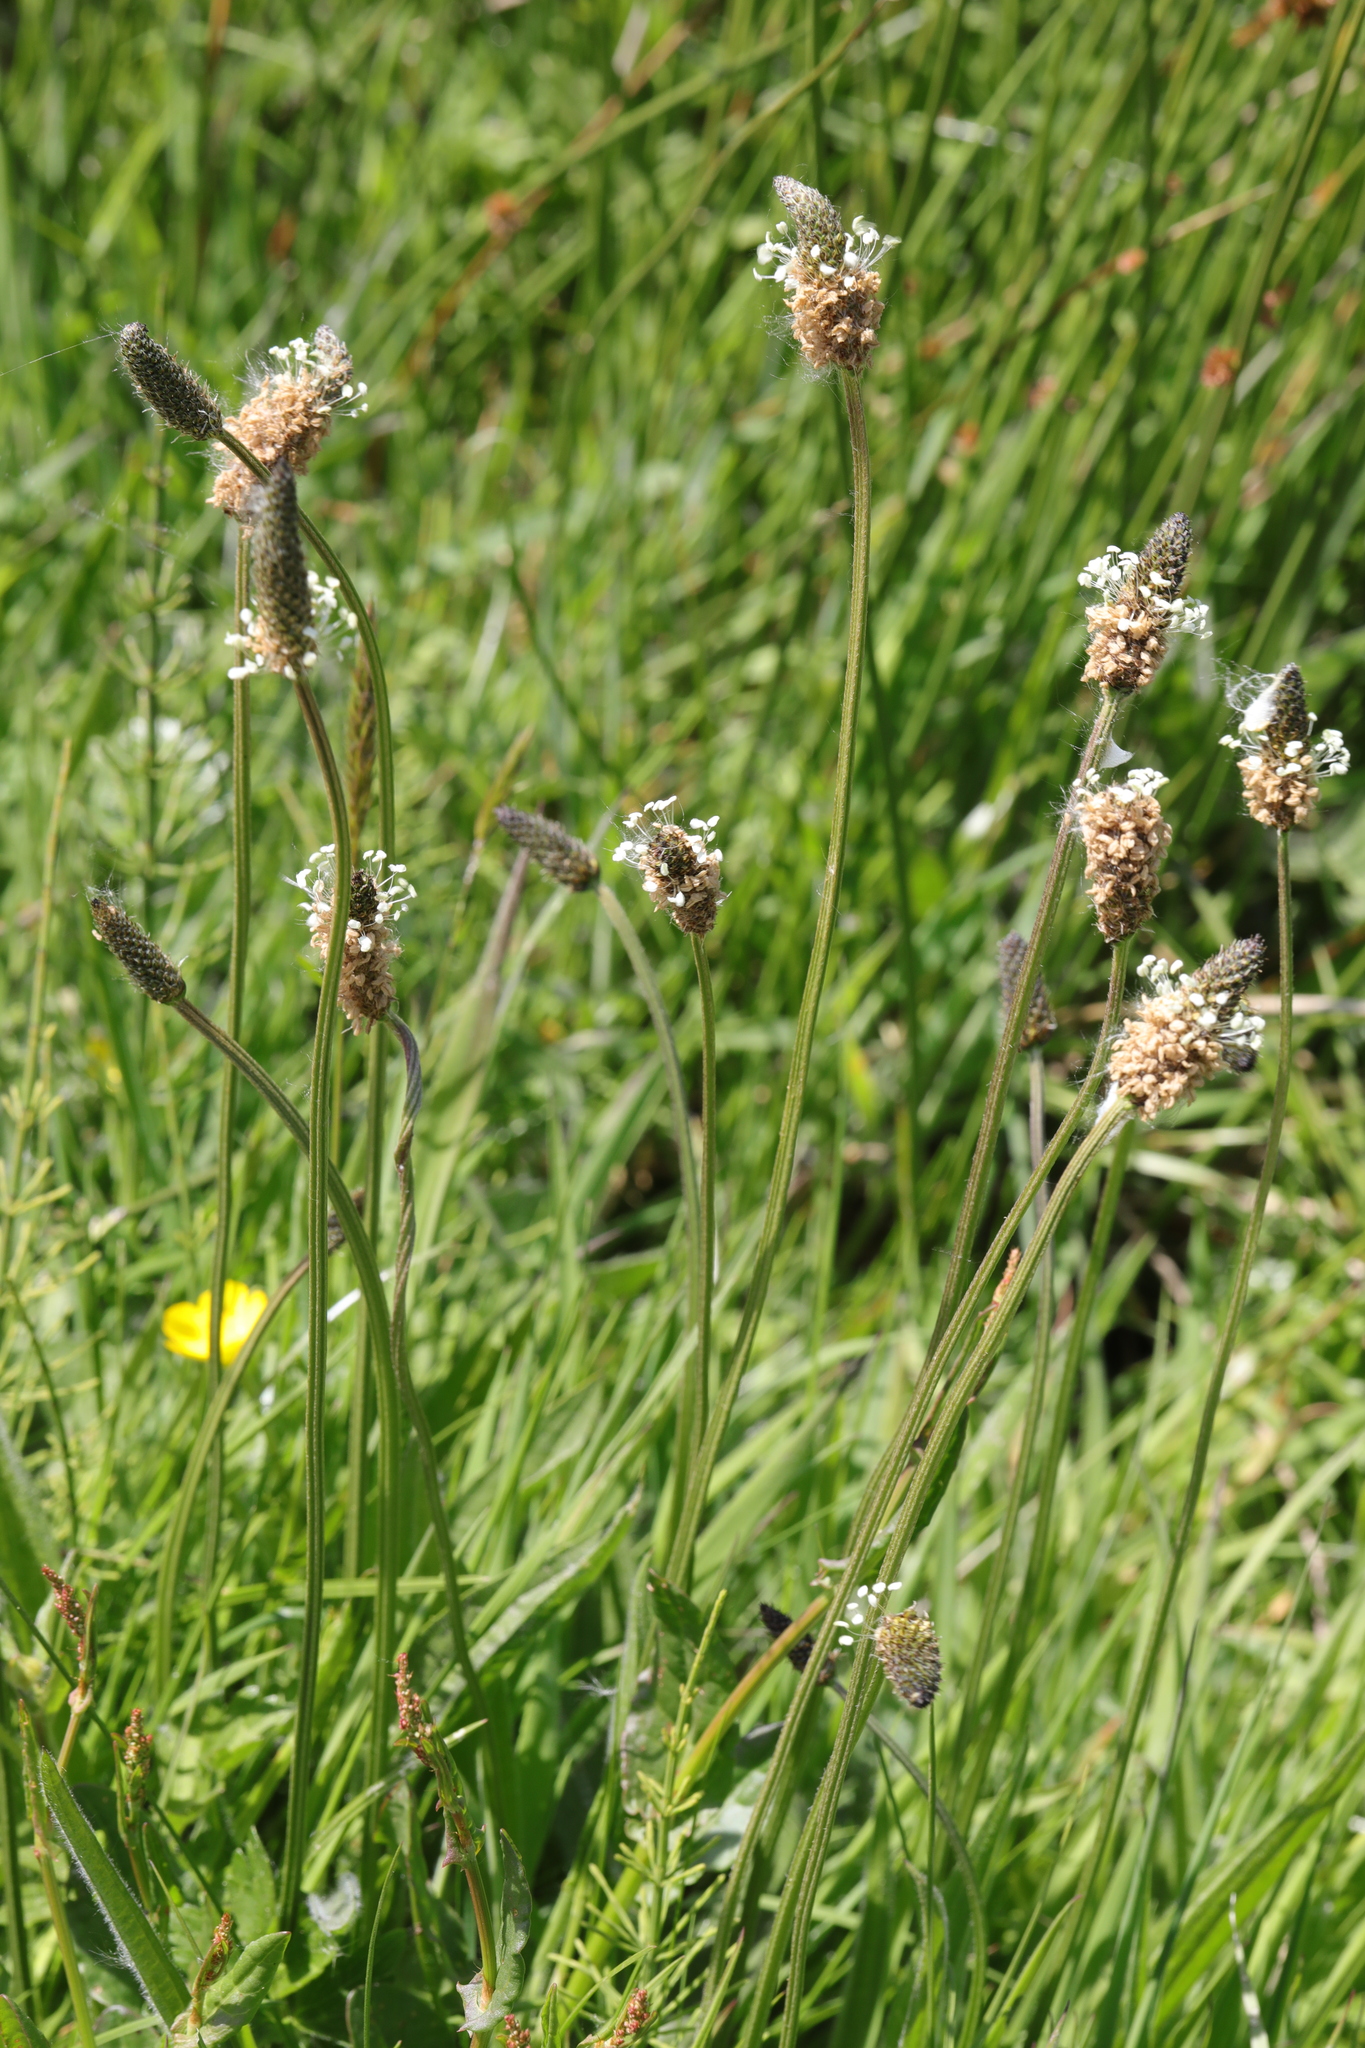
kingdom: Plantae
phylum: Tracheophyta
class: Magnoliopsida
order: Lamiales
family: Plantaginaceae
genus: Plantago
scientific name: Plantago lanceolata
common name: Ribwort plantain
